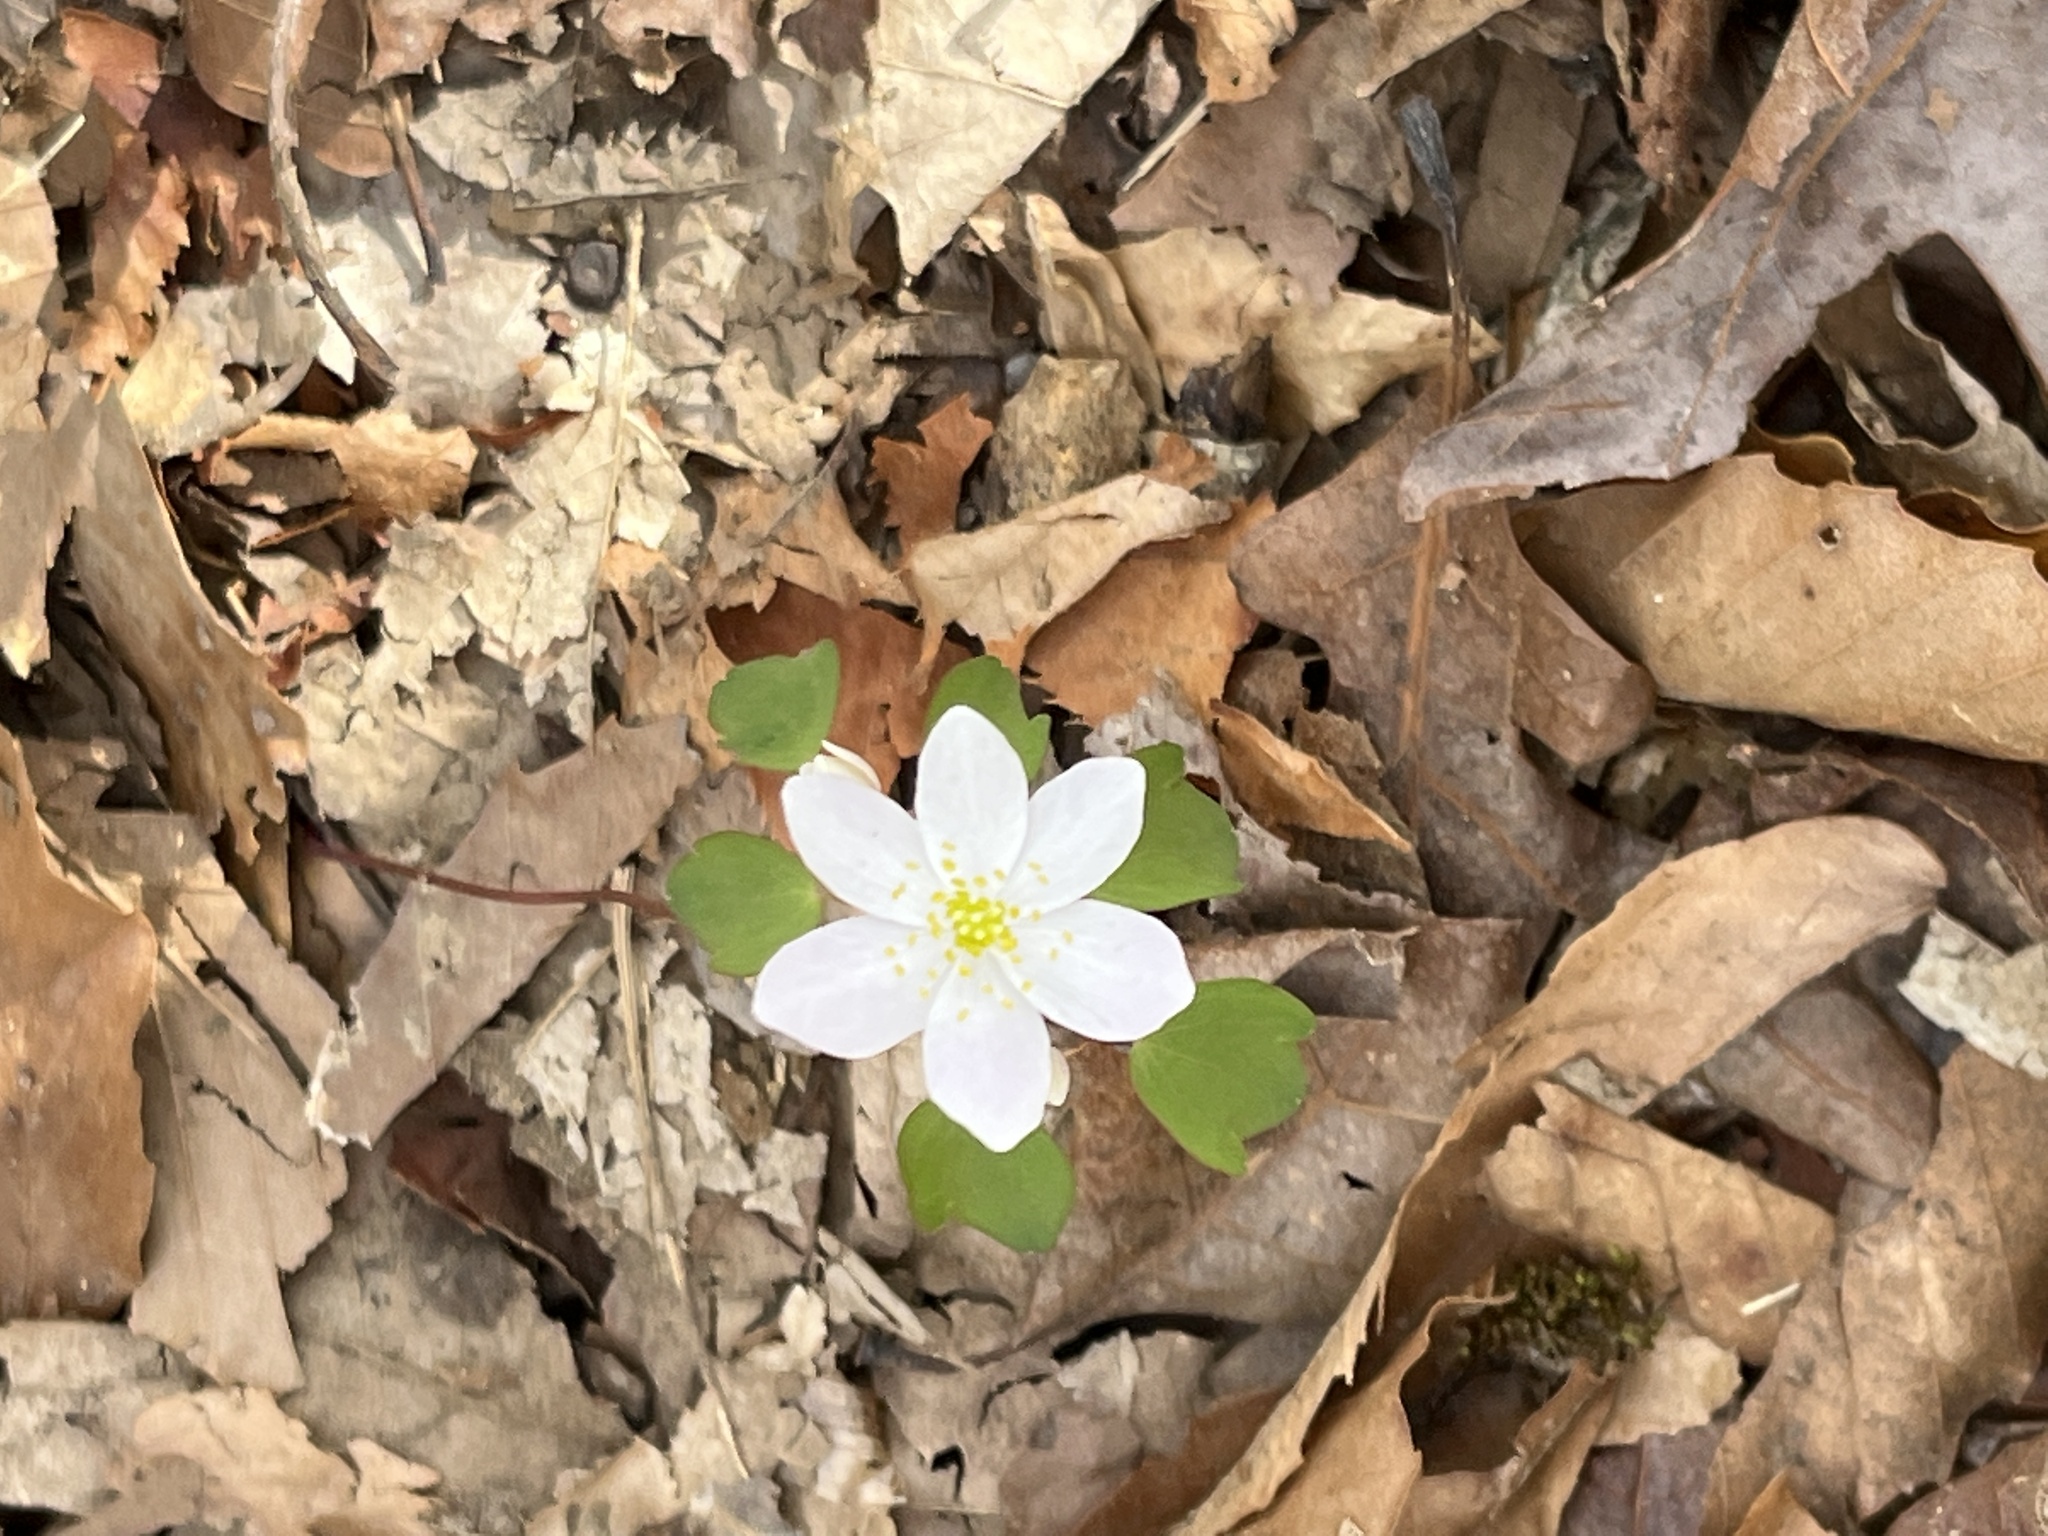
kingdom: Plantae
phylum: Tracheophyta
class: Magnoliopsida
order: Ranunculales
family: Ranunculaceae
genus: Thalictrum
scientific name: Thalictrum thalictroides
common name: Rue-anemone
